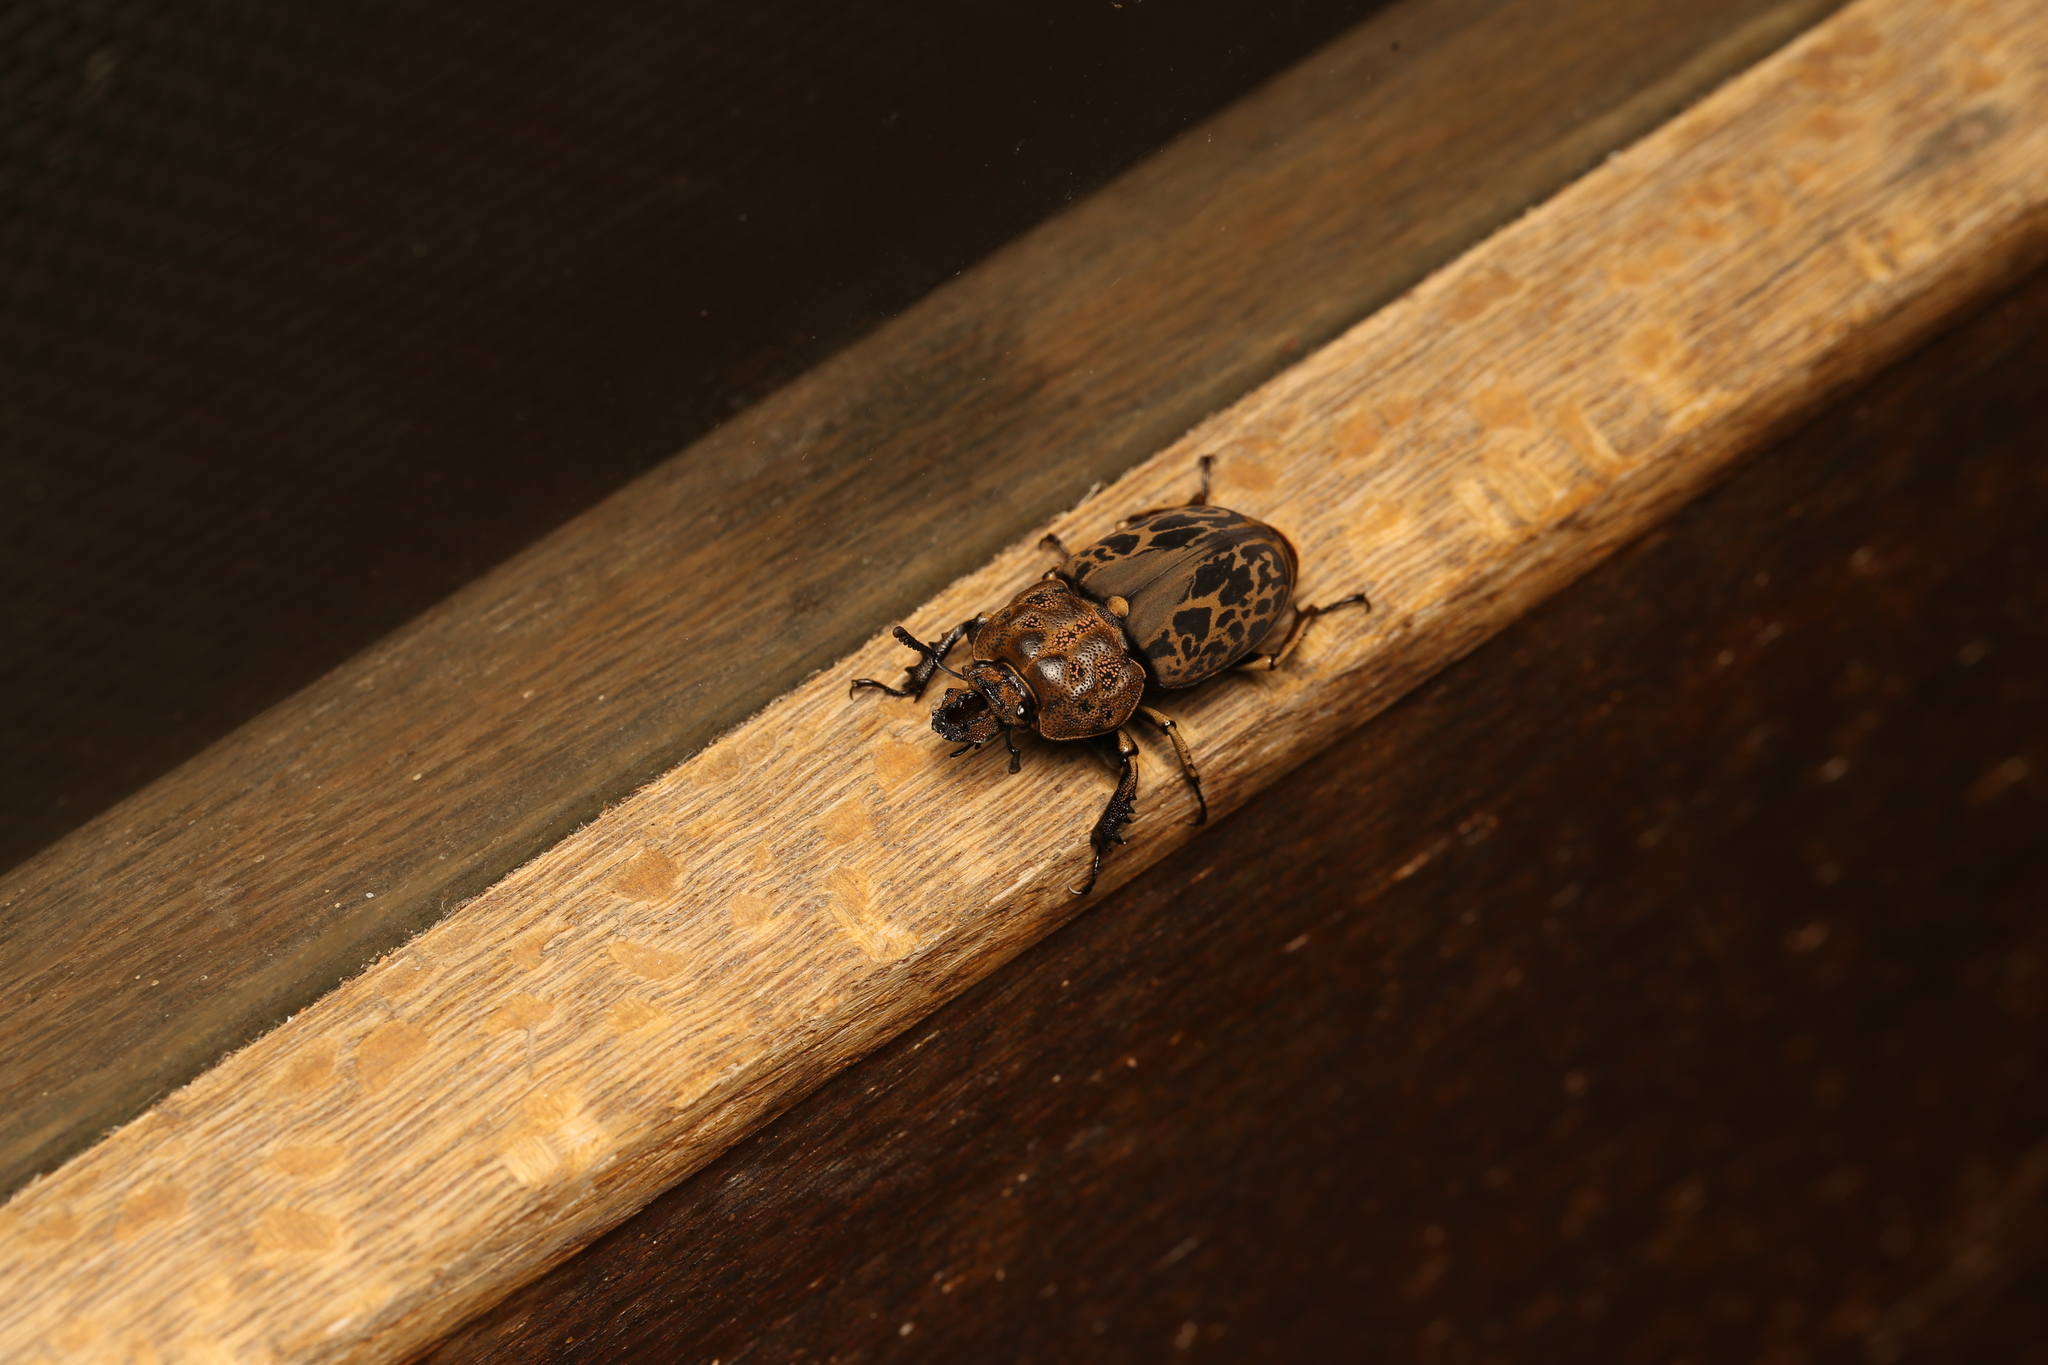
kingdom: Animalia
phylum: Arthropoda
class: Insecta
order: Coleoptera
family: Lucanidae
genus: Ryssonotus
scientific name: Ryssonotus nebulosus
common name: Brown stag beetle
